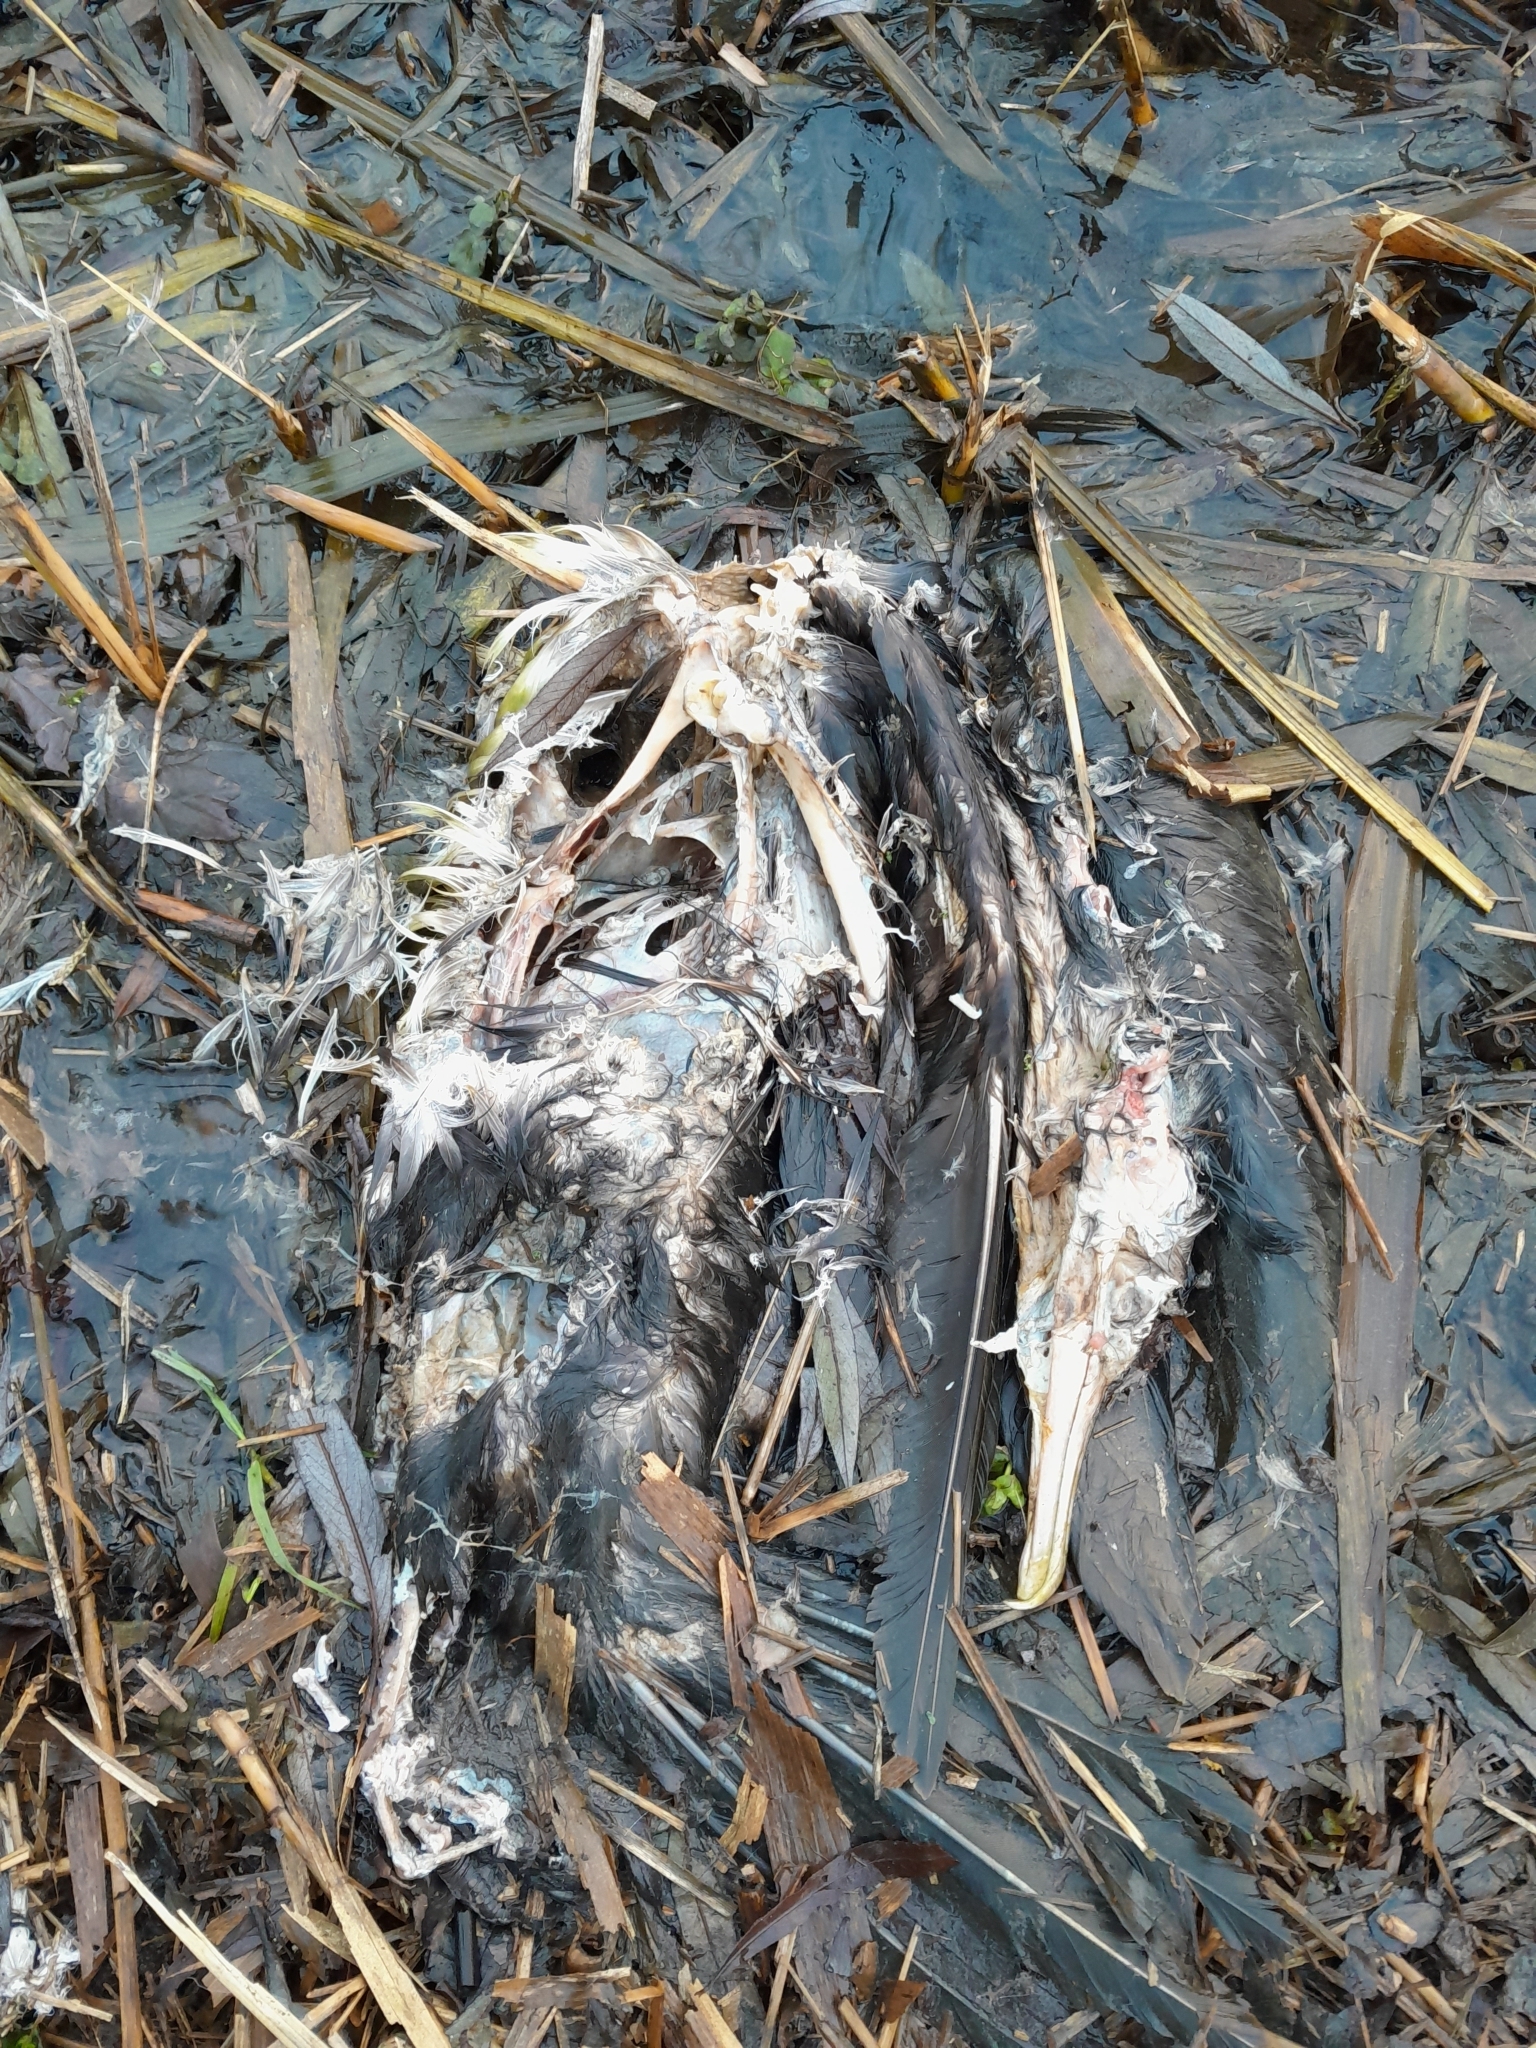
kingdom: Animalia
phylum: Chordata
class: Aves
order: Suliformes
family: Phalacrocoracidae
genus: Phalacrocorax
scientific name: Phalacrocorax carbo
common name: Great cormorant
